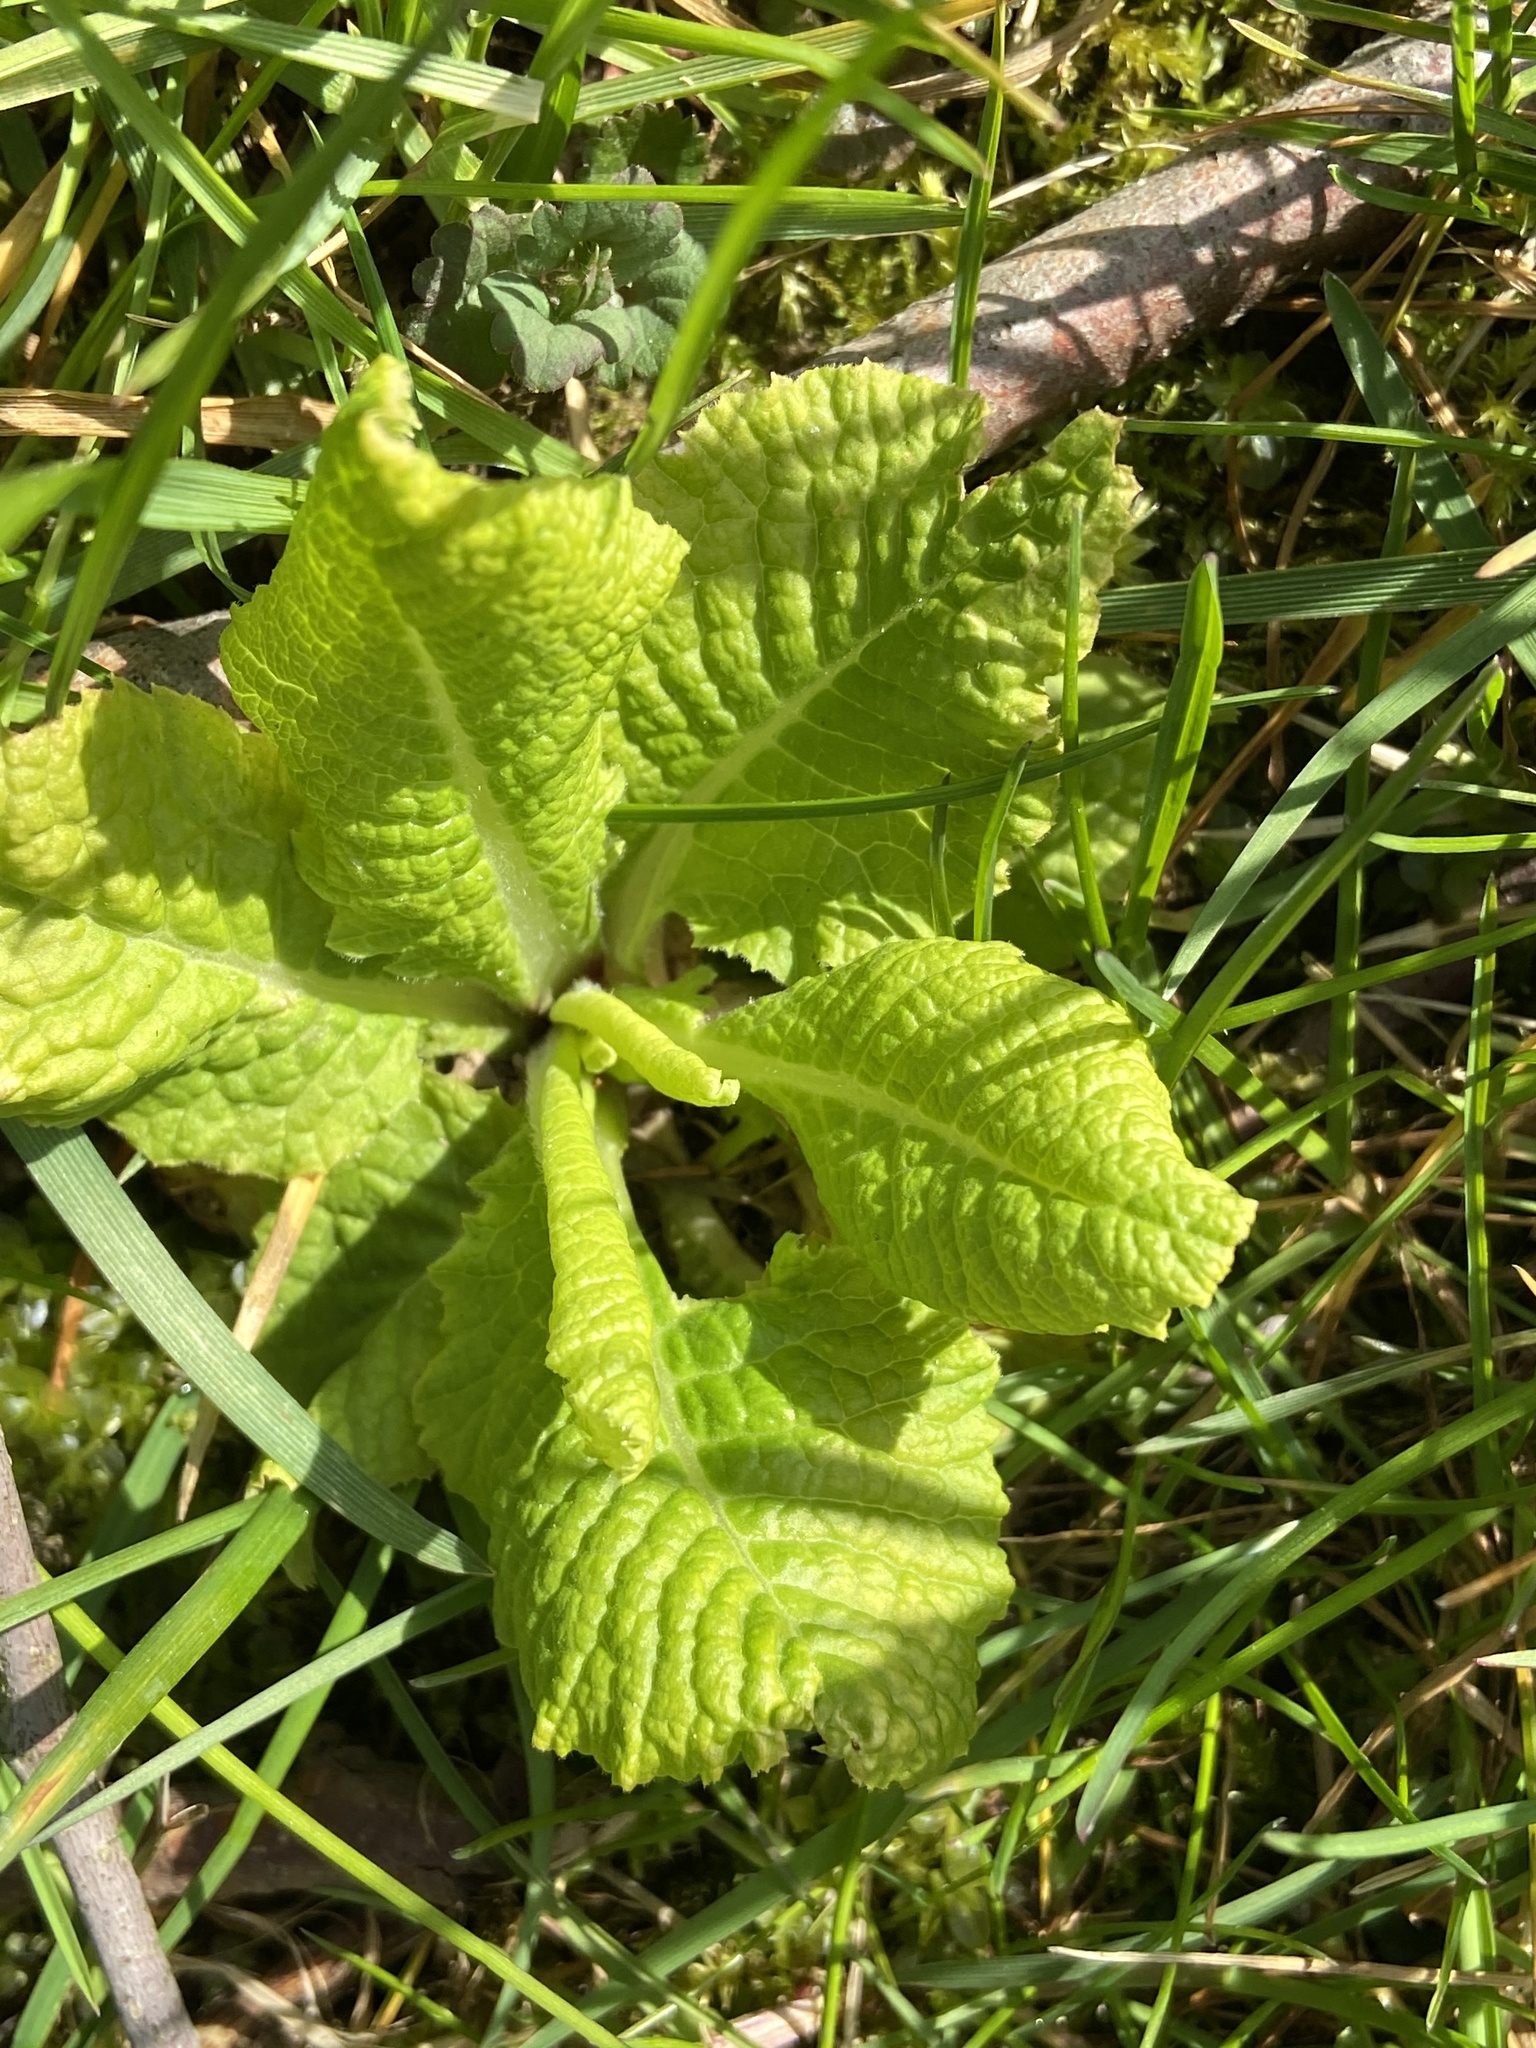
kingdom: Plantae
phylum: Tracheophyta
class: Magnoliopsida
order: Ericales
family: Primulaceae
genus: Primula
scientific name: Primula vulgaris
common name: Primrose
